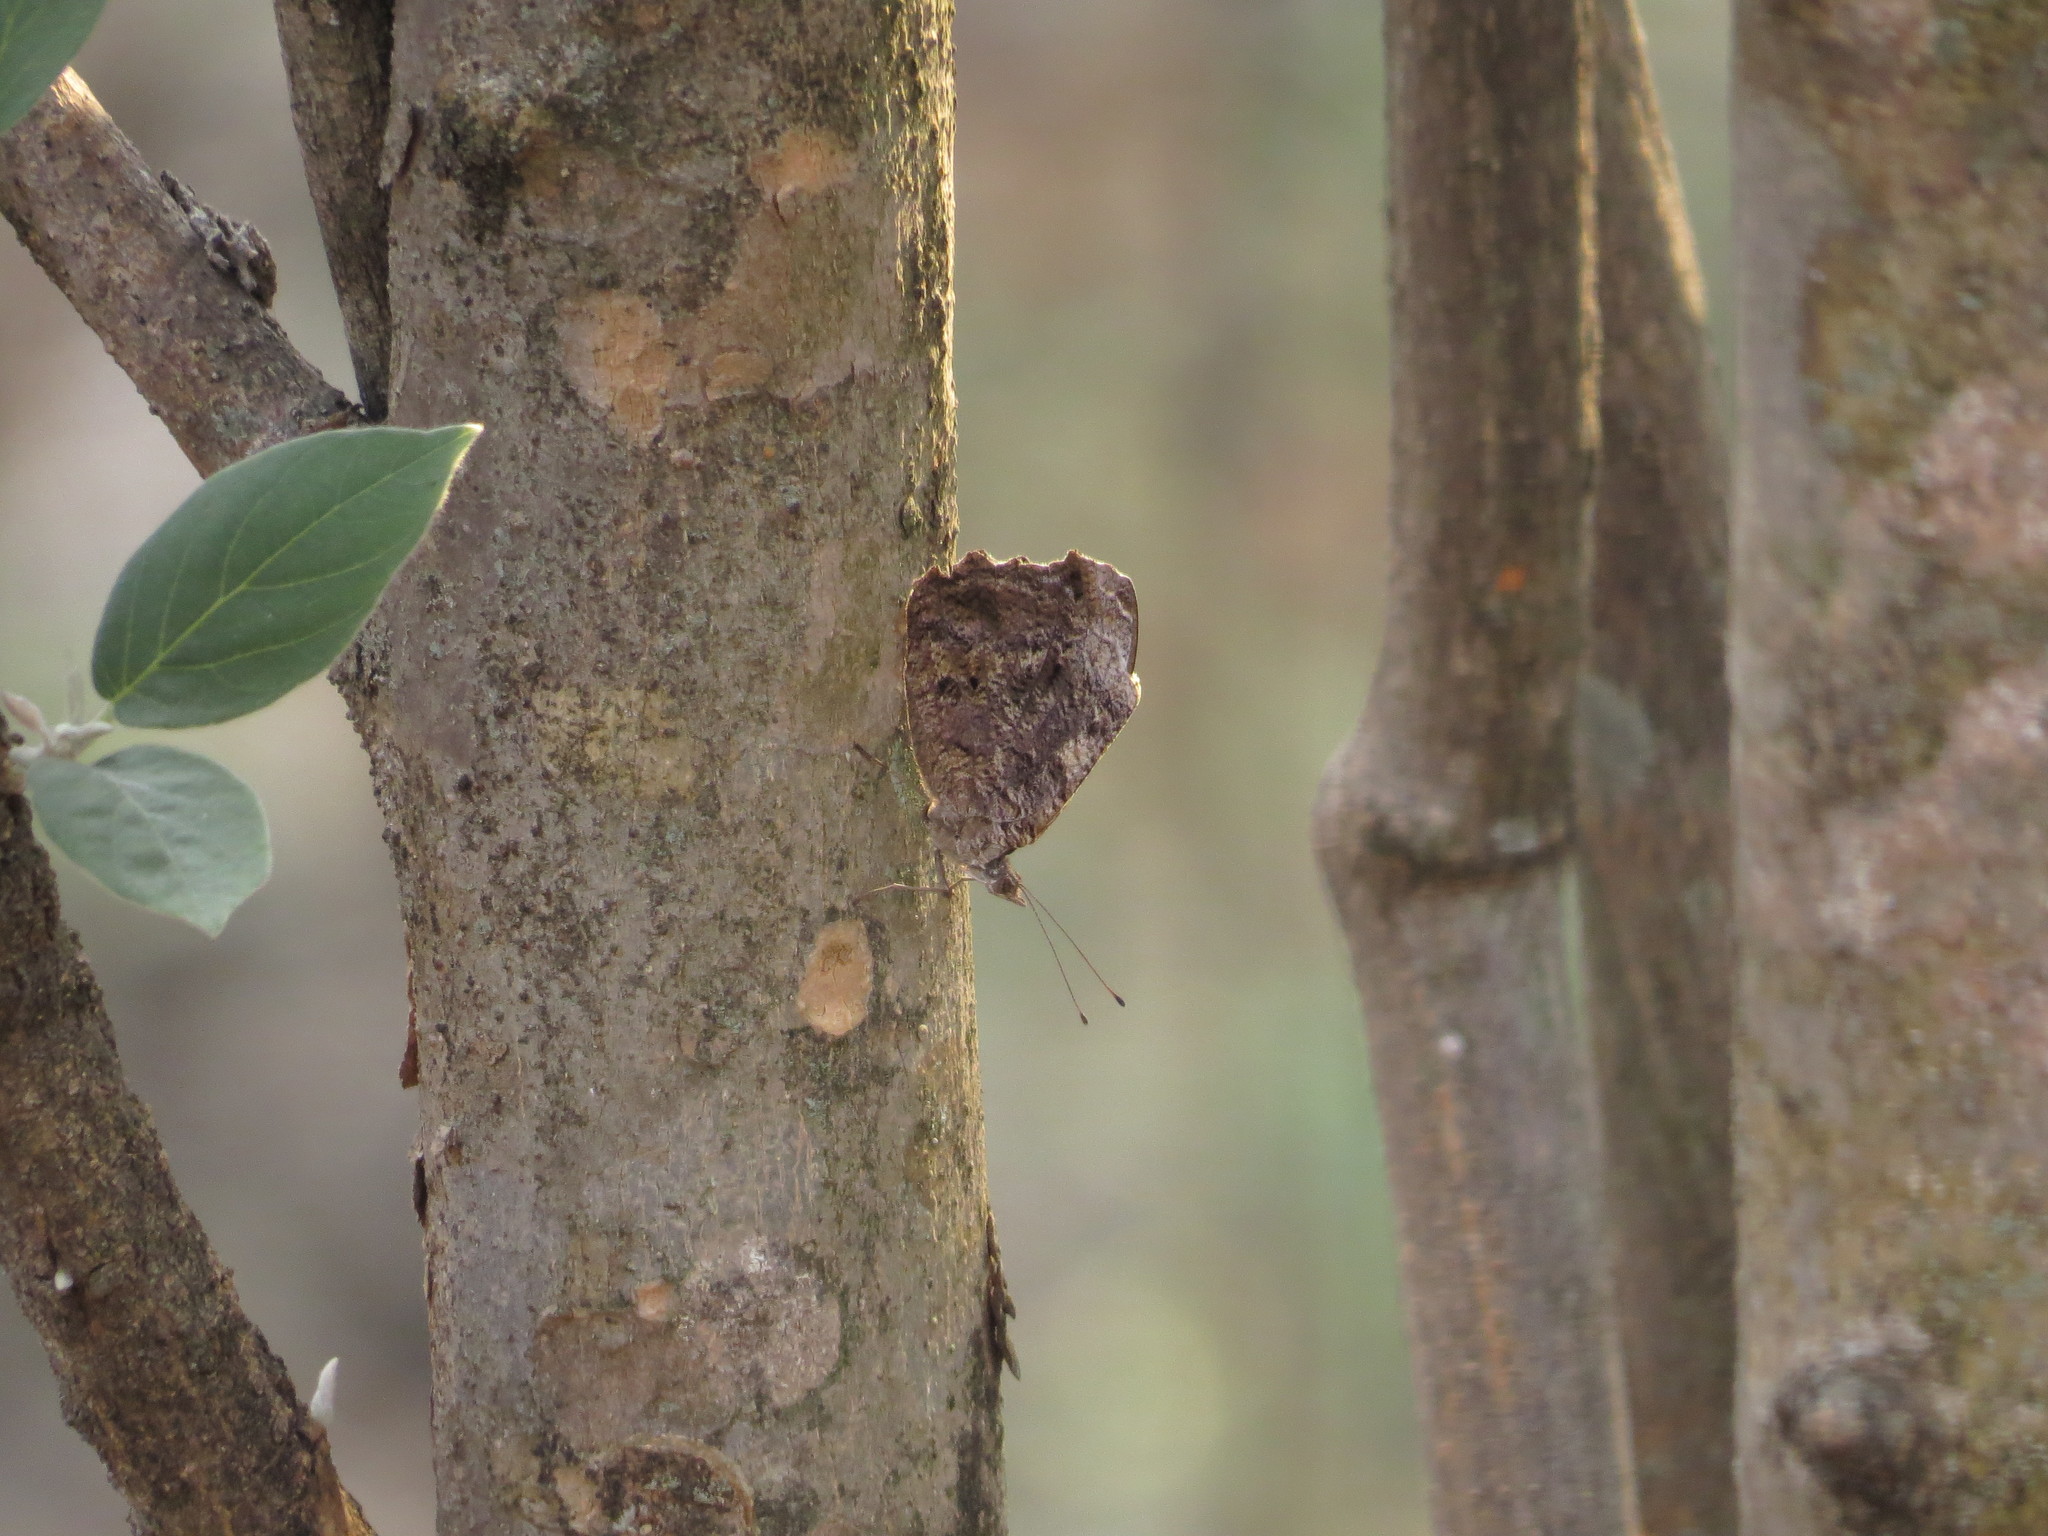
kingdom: Animalia
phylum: Arthropoda
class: Insecta
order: Lepidoptera
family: Nymphalidae
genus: Myscelia
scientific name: Myscelia ethusa
